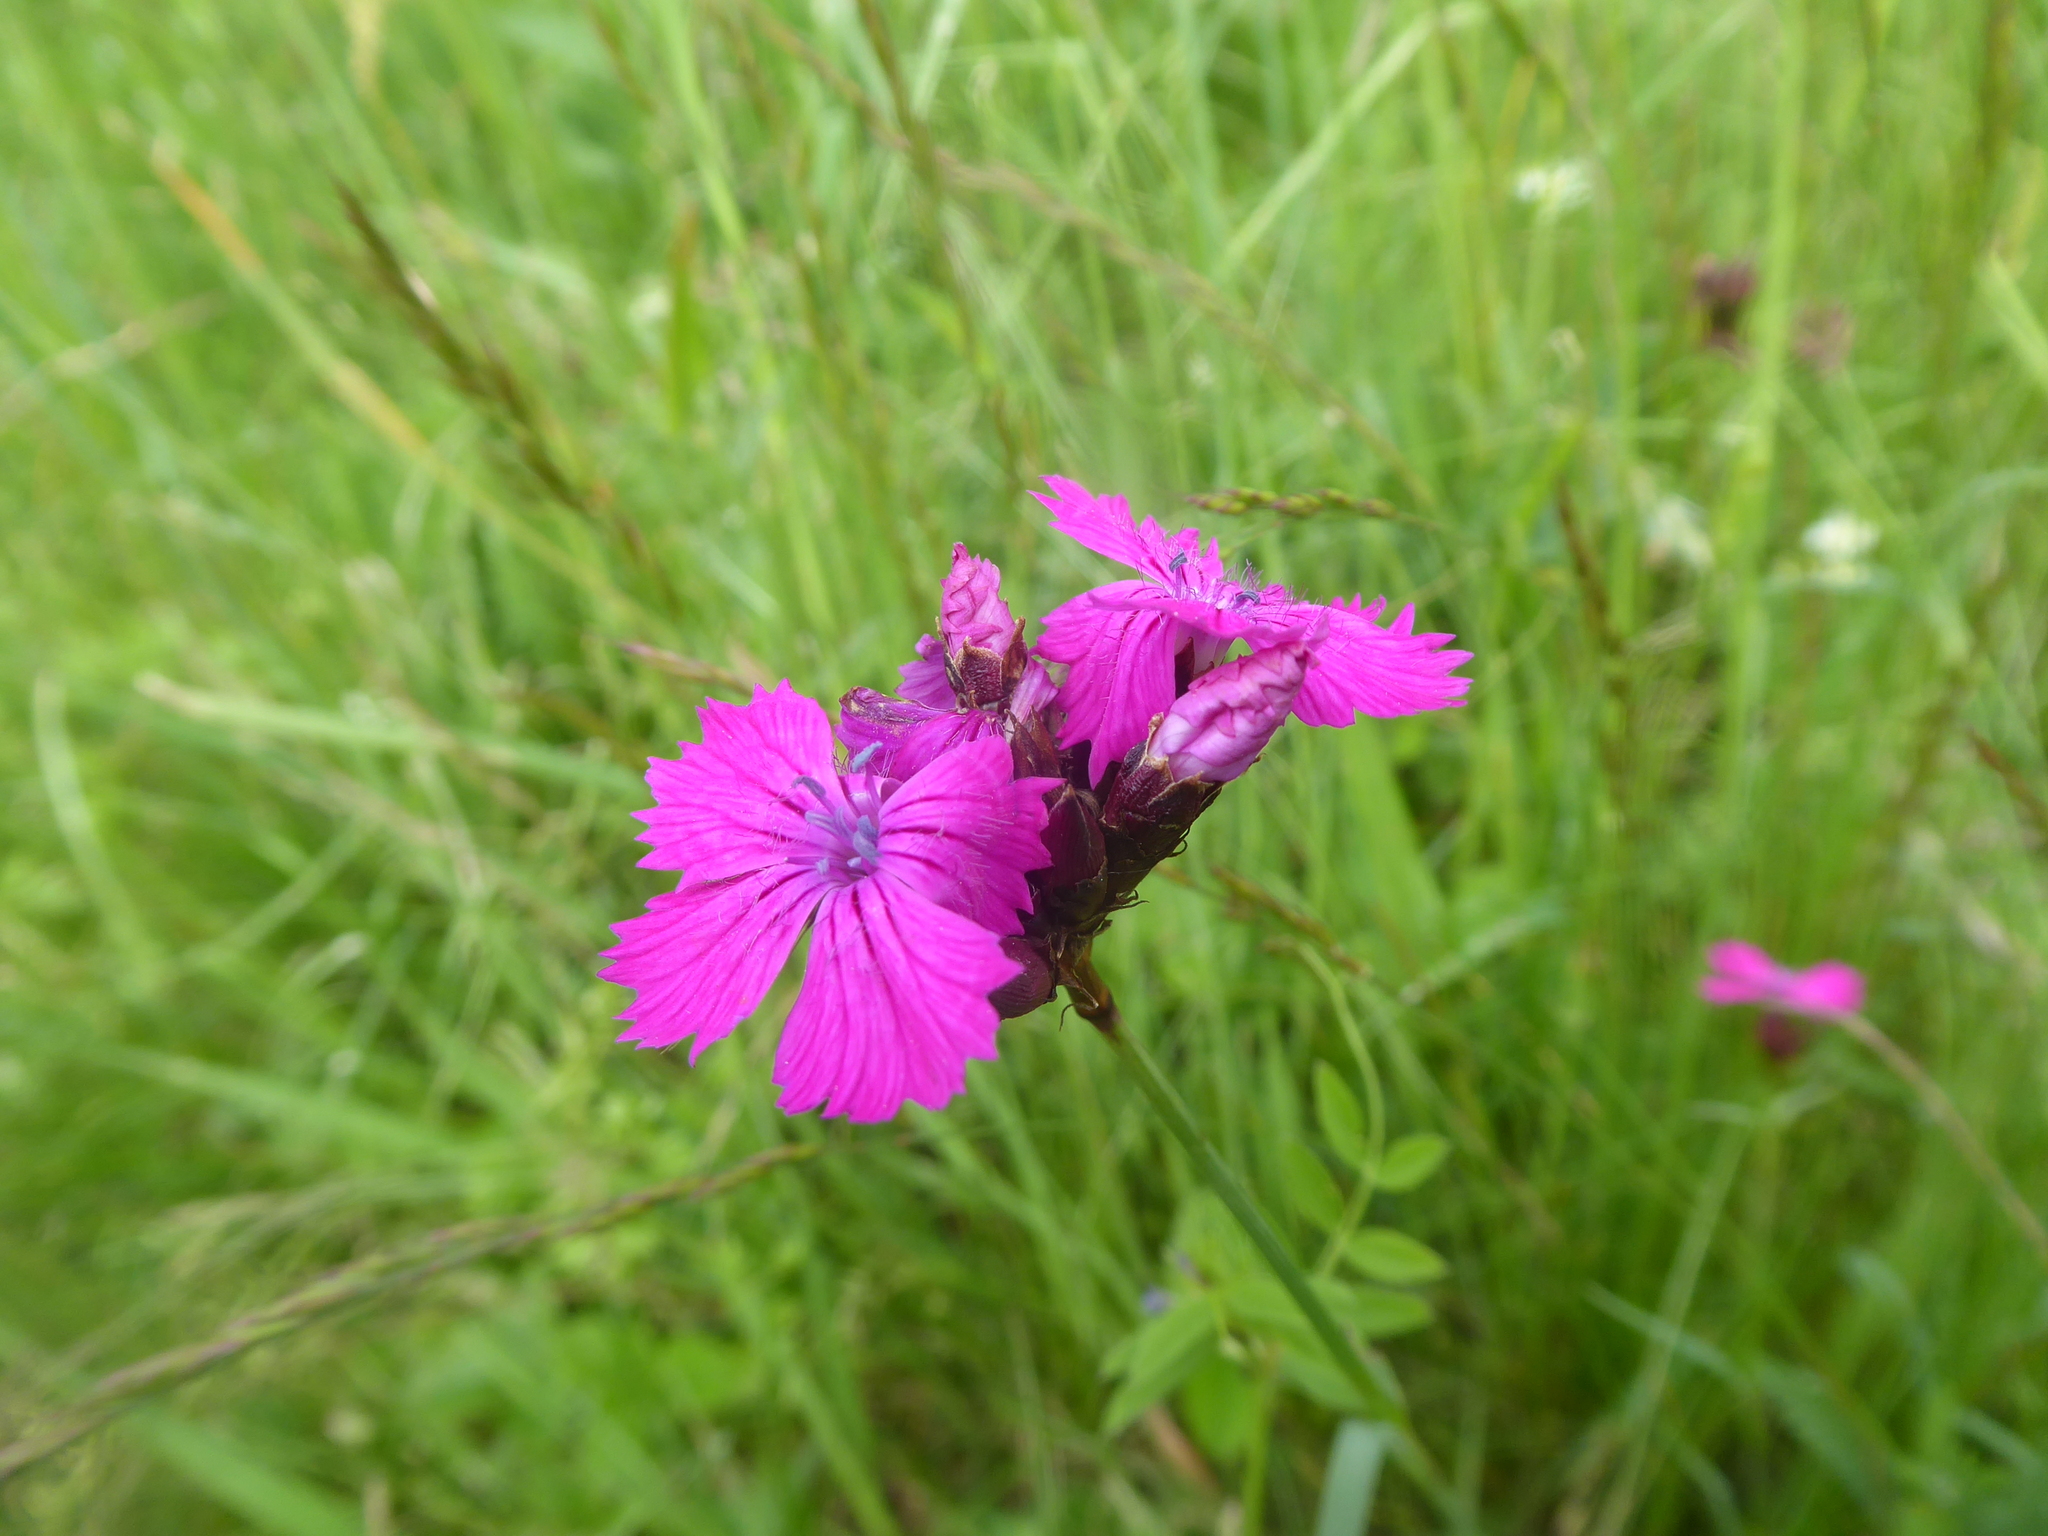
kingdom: Plantae
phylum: Tracheophyta
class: Magnoliopsida
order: Caryophyllales
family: Caryophyllaceae
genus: Dianthus
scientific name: Dianthus carthusianorum
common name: Carthusian pink
